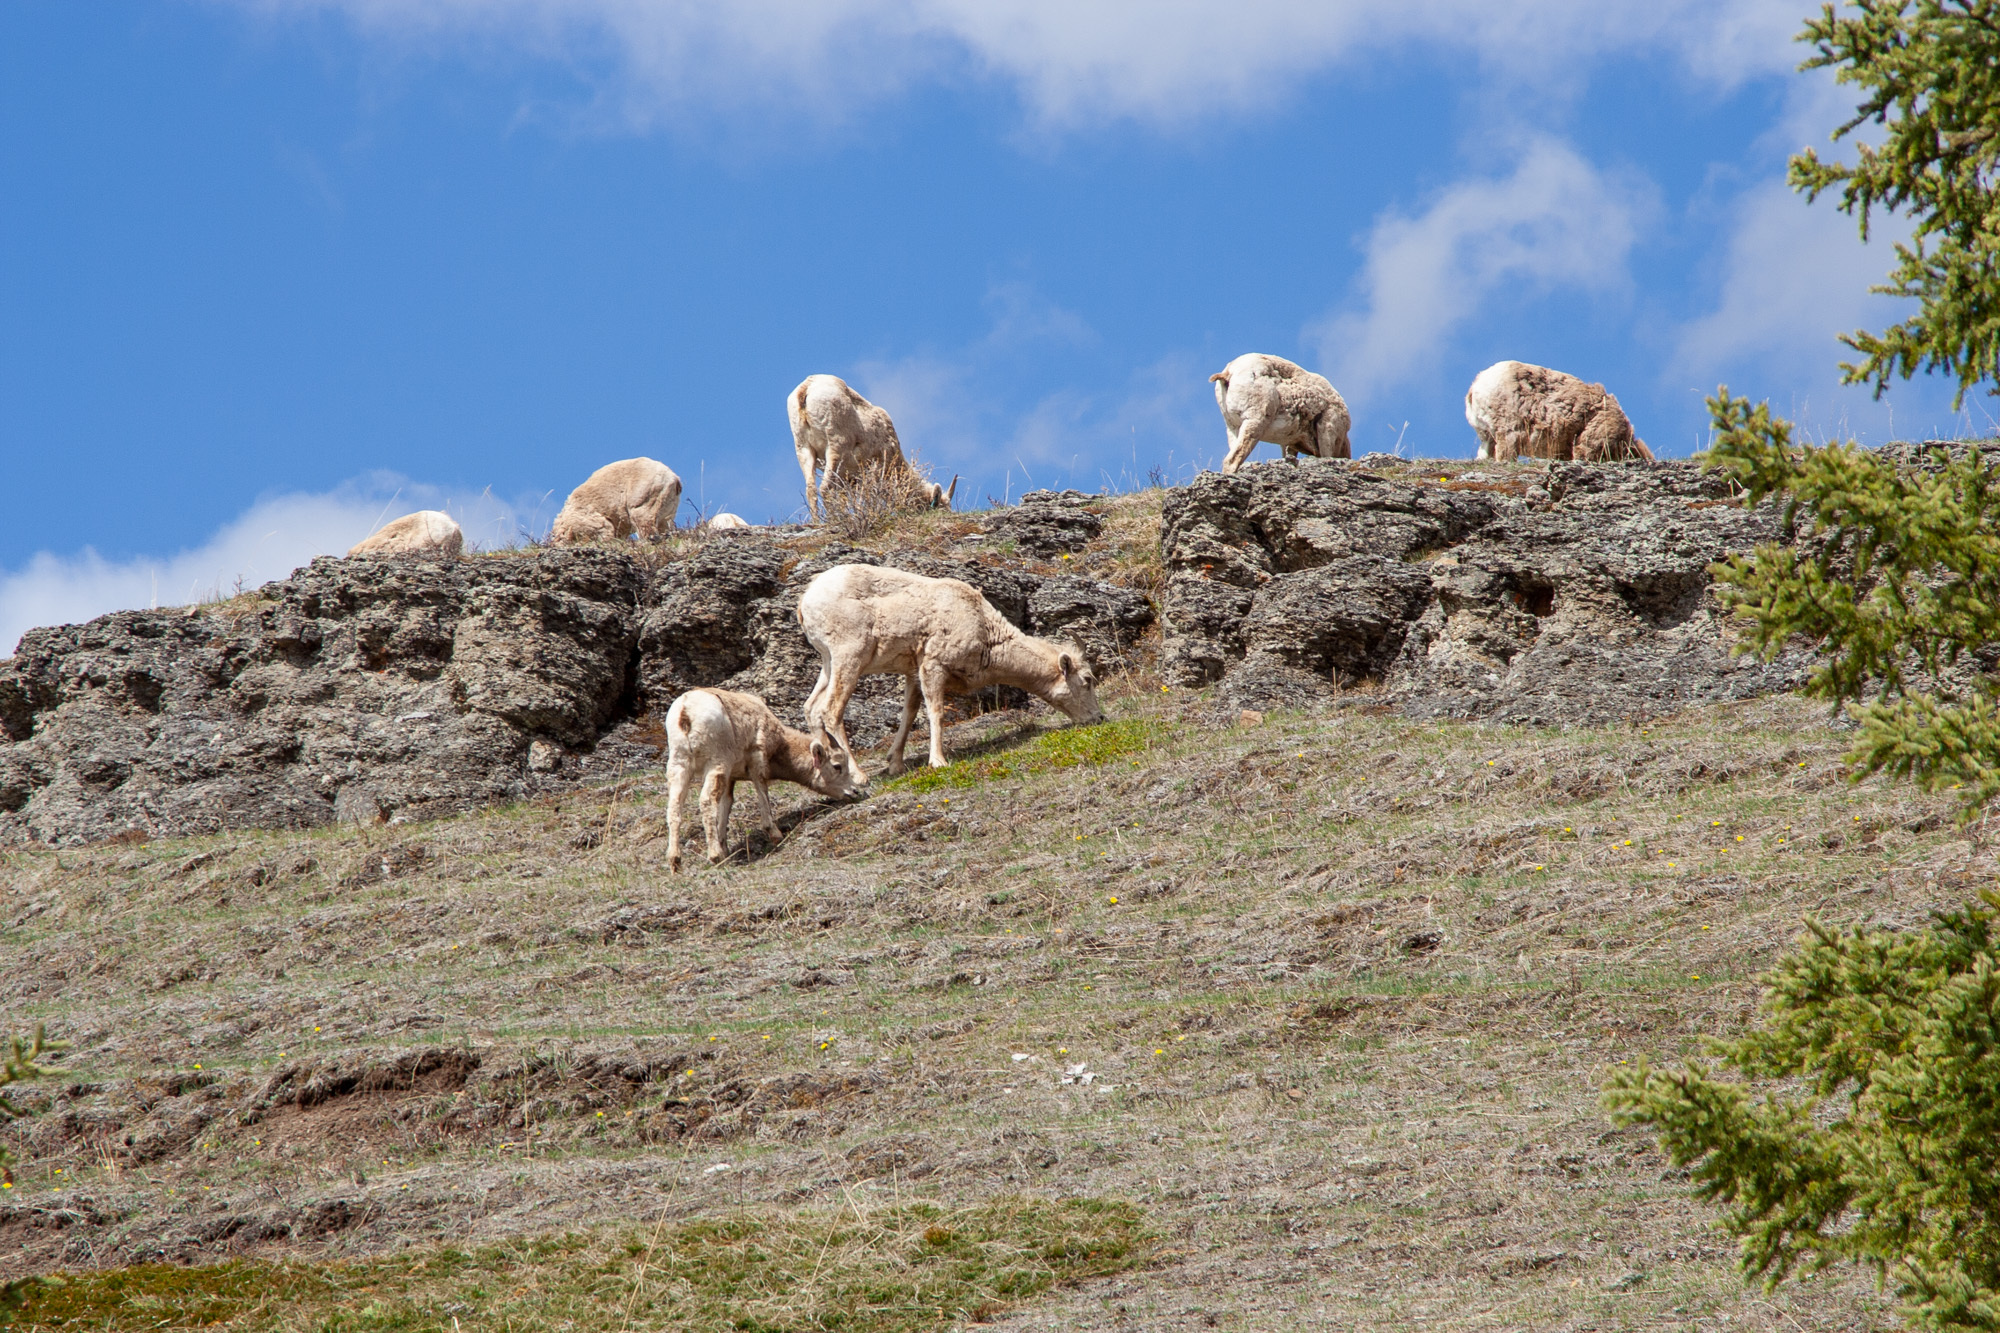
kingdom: Animalia
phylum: Chordata
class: Mammalia
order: Artiodactyla
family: Bovidae
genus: Ovis
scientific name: Ovis canadensis
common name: Bighorn sheep
